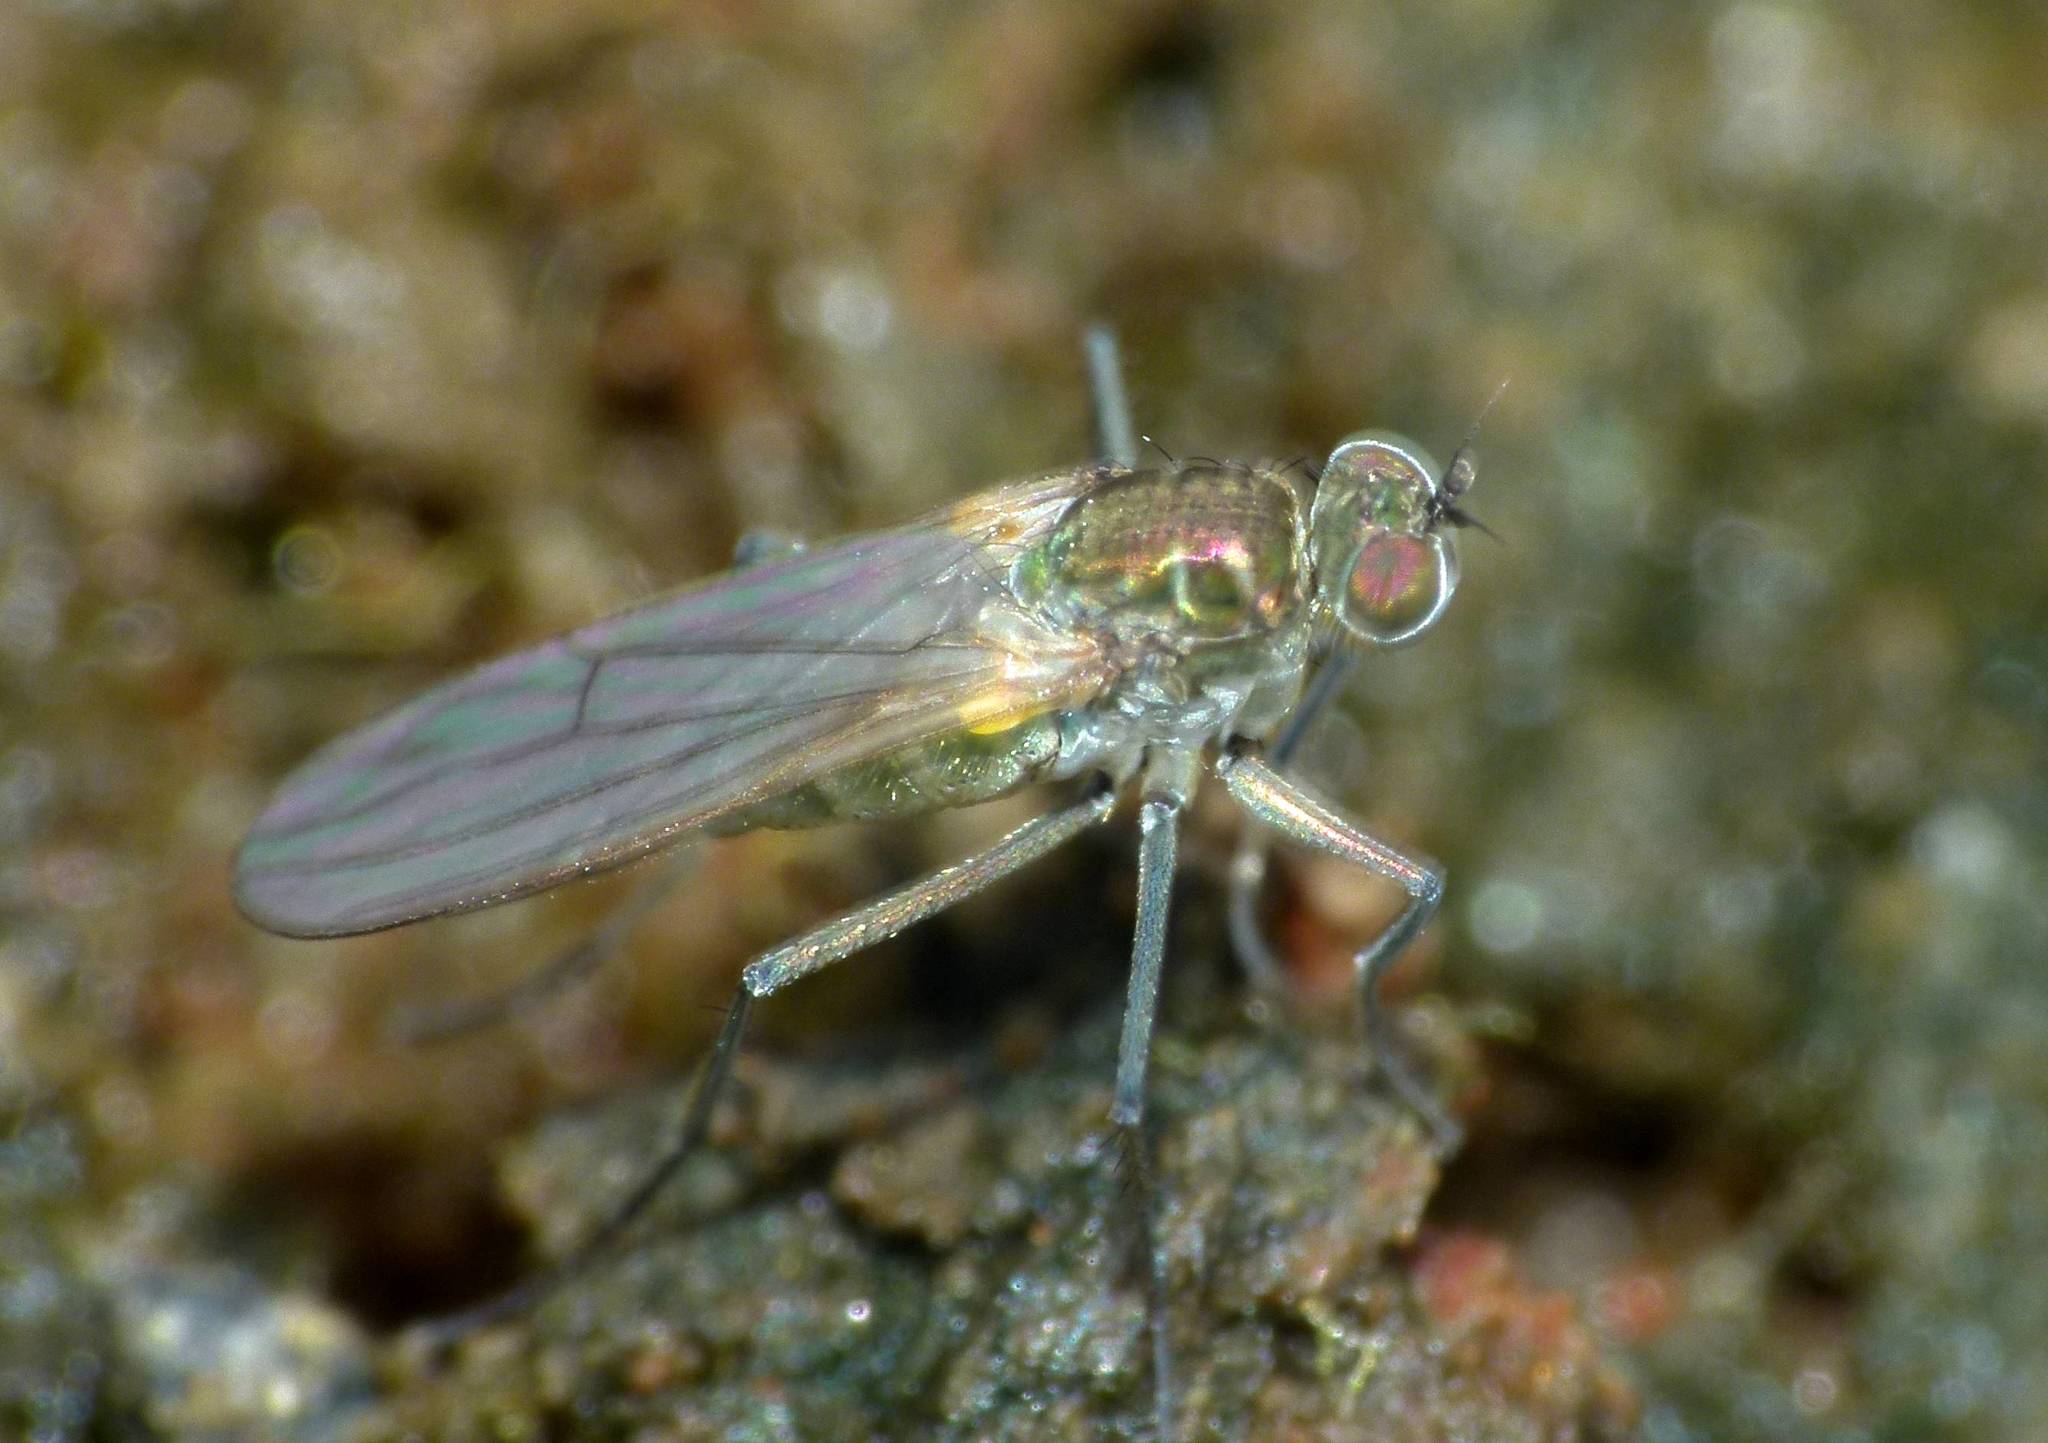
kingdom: Animalia
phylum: Arthropoda
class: Insecta
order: Diptera
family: Dolichopodidae
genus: Hydrophorus
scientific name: Hydrophorus praecox
